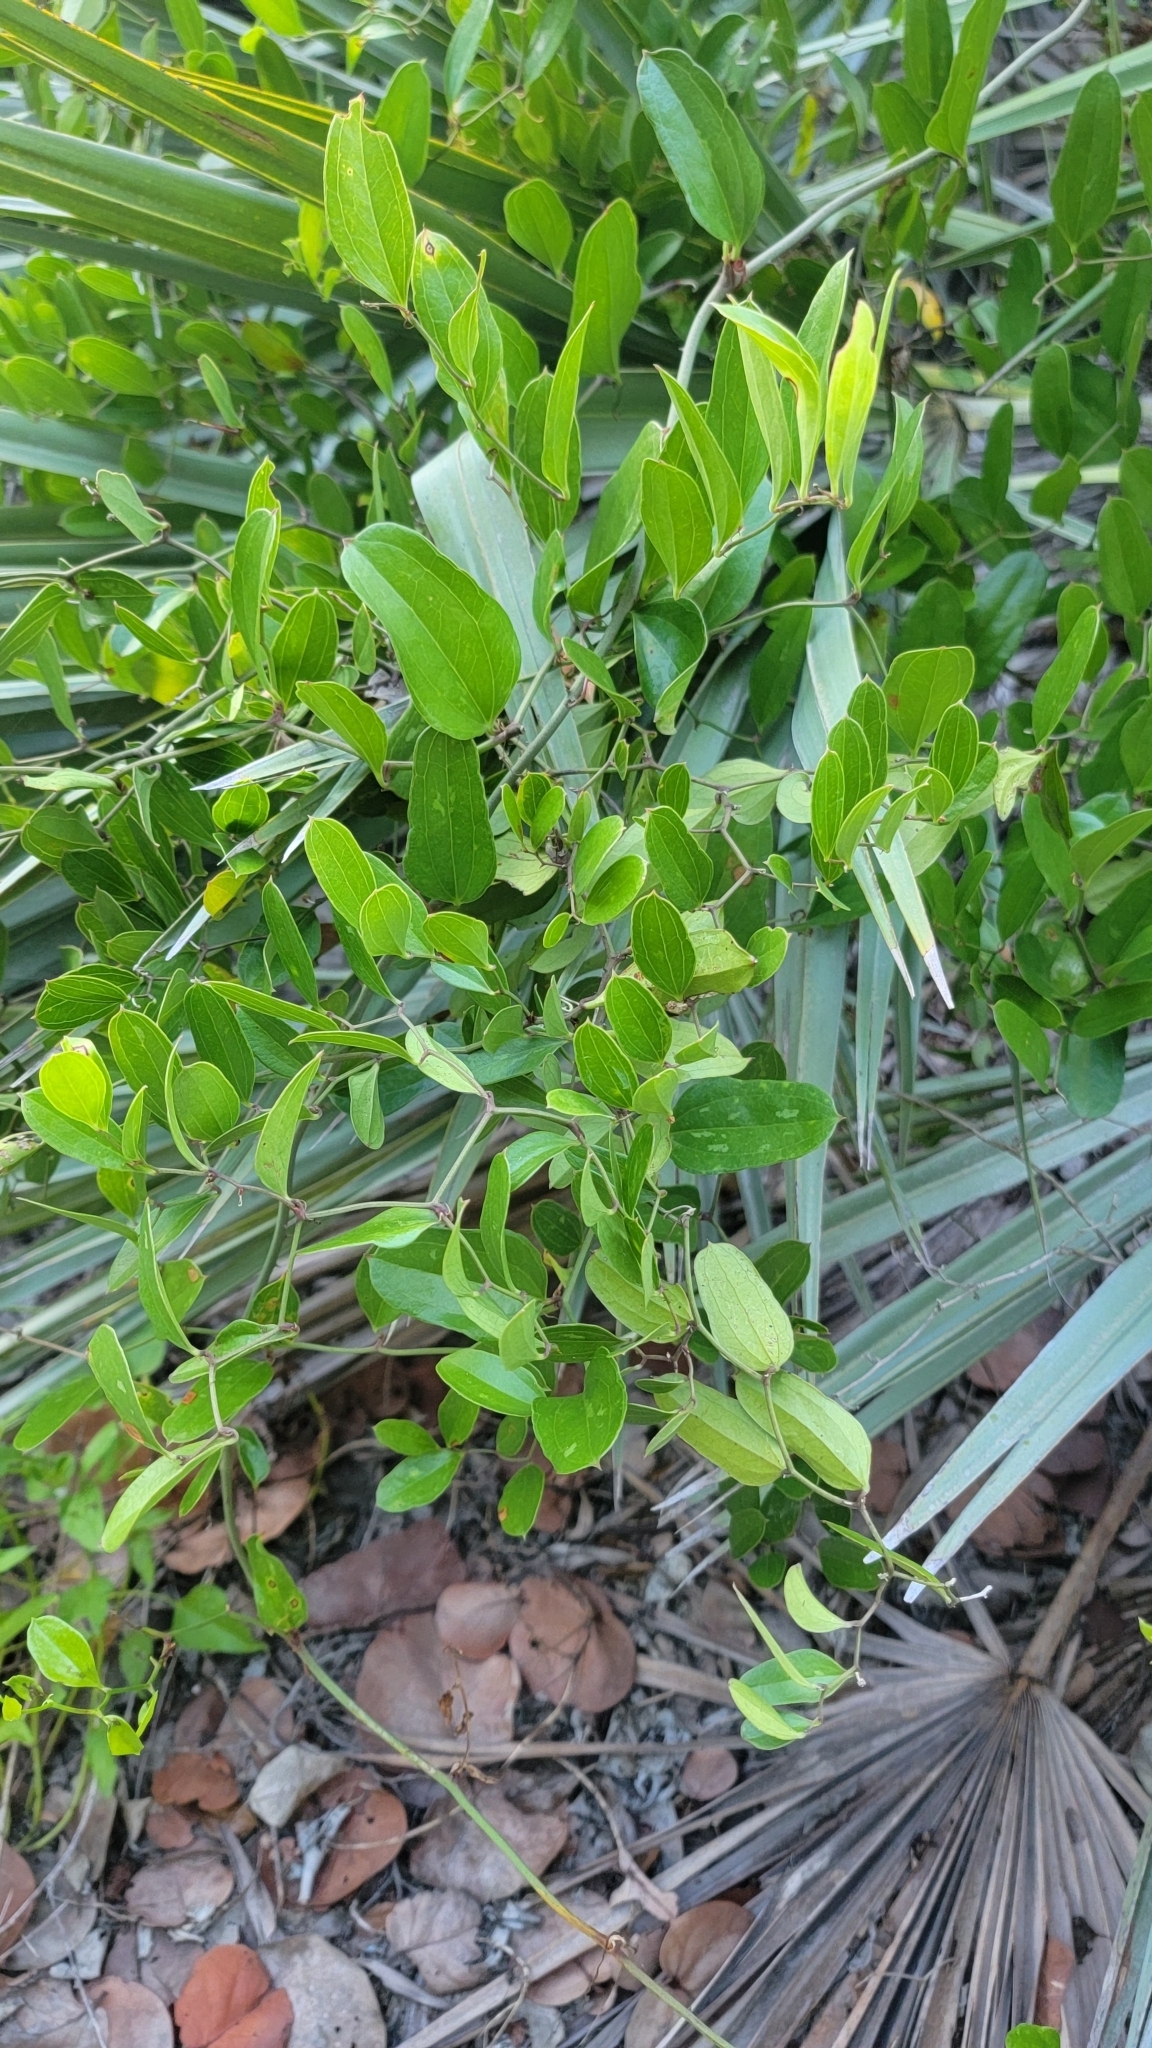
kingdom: Plantae
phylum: Tracheophyta
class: Liliopsida
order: Liliales
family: Smilacaceae
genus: Smilax
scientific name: Smilax auriculata
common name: Wild bamboo
